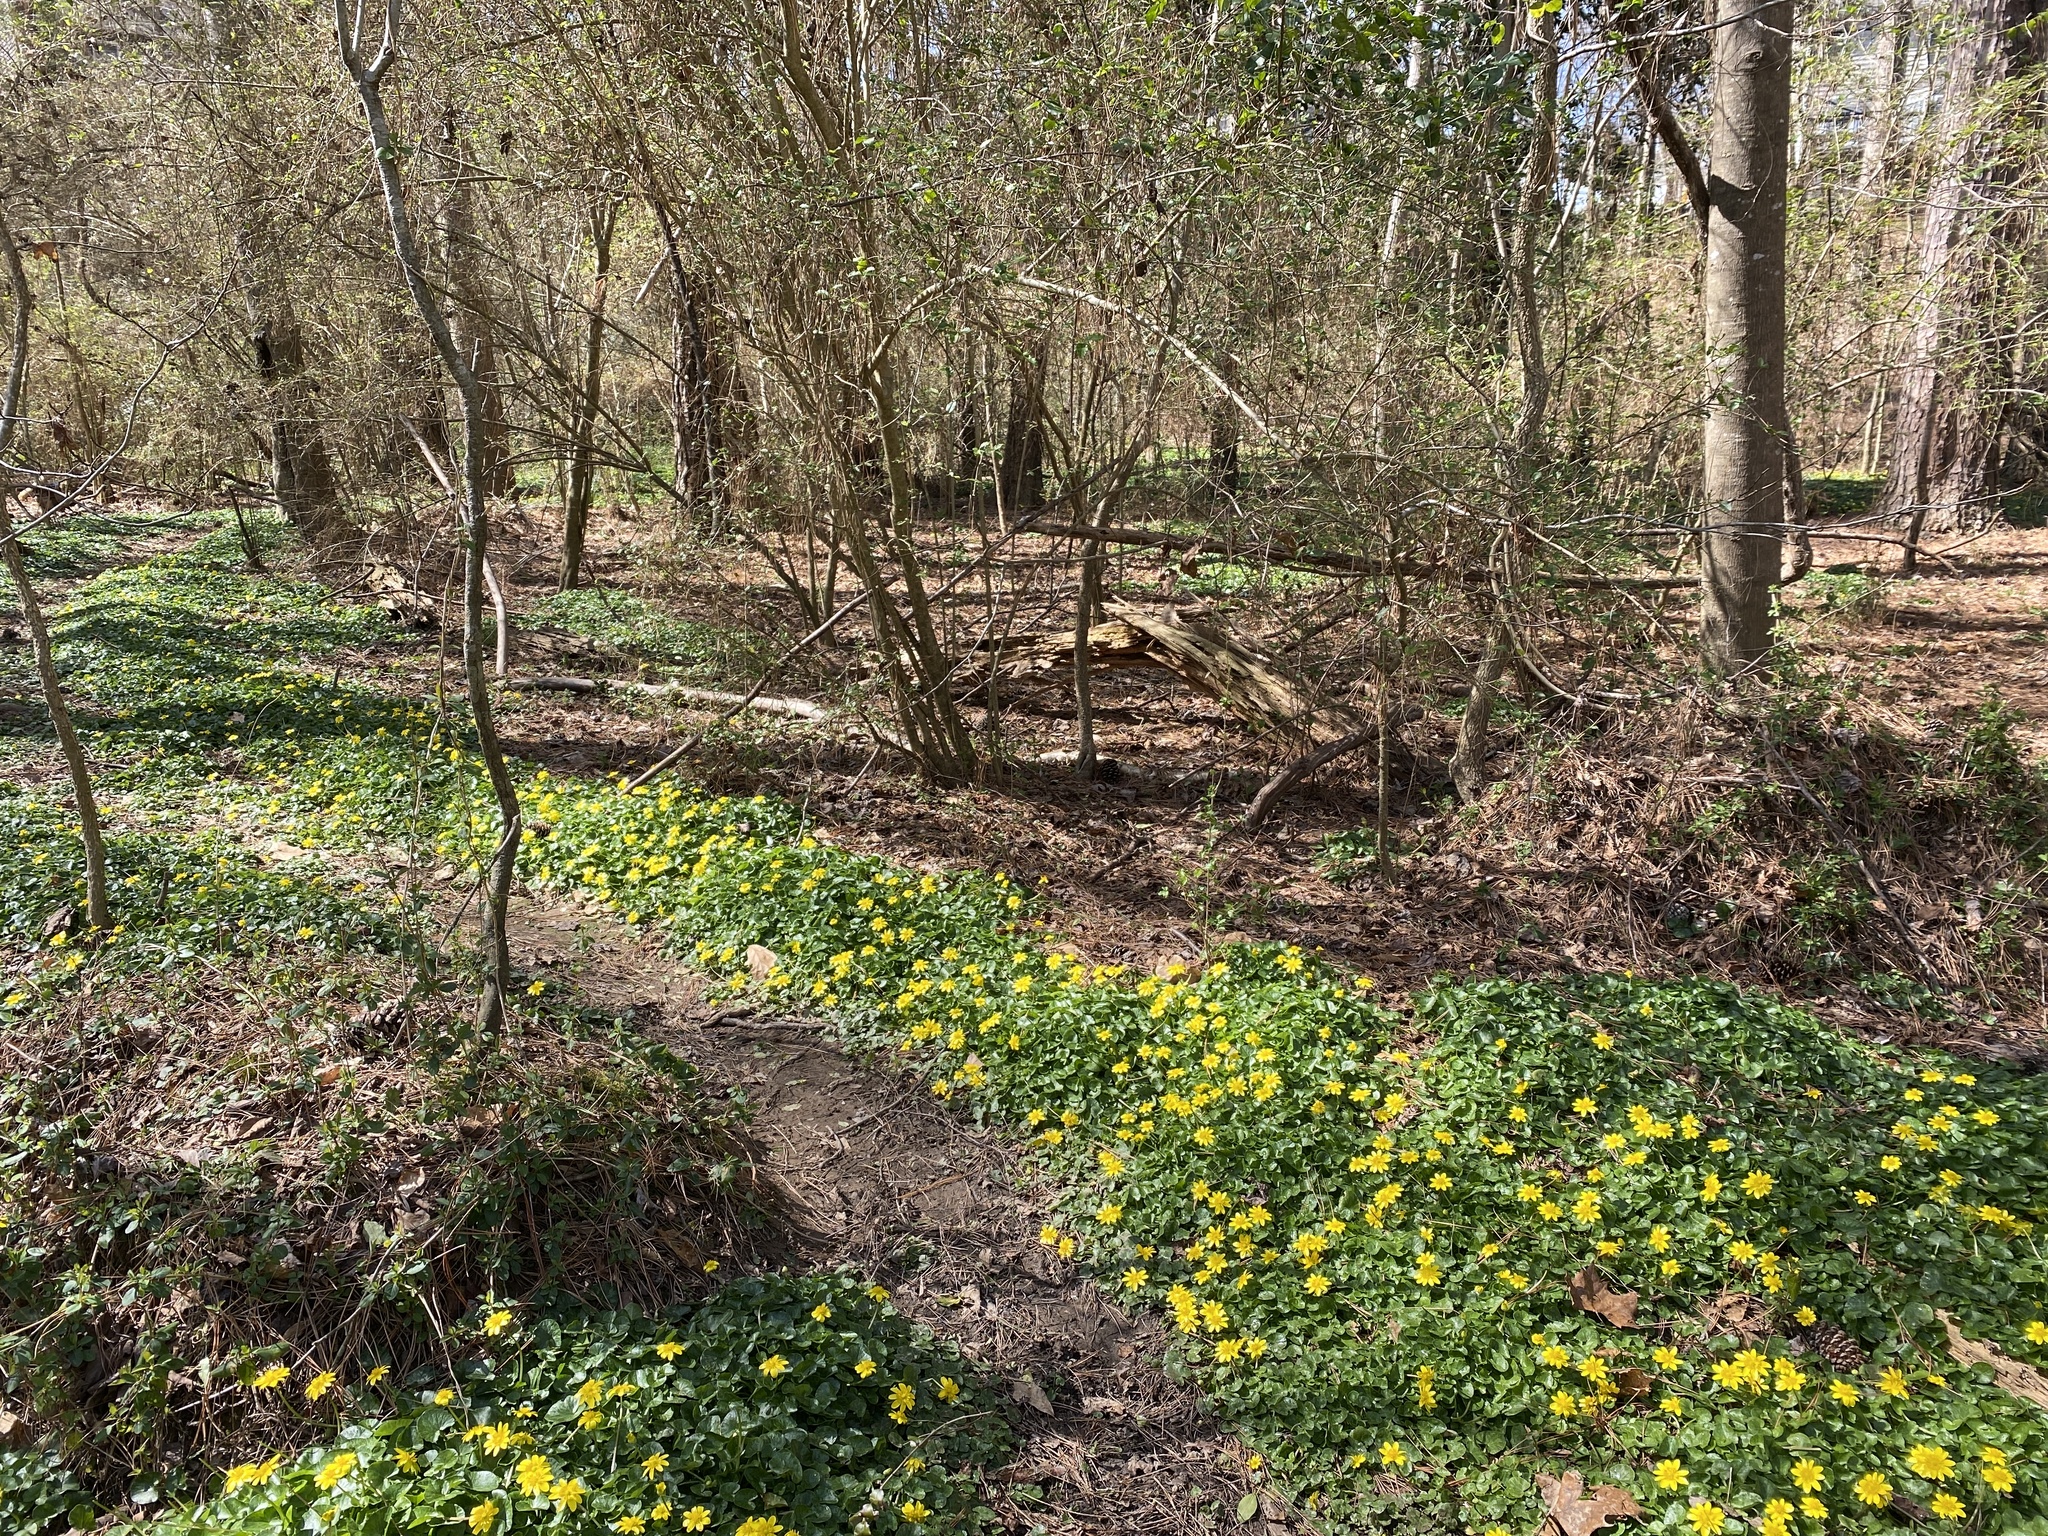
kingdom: Plantae
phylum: Tracheophyta
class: Magnoliopsida
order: Ranunculales
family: Ranunculaceae
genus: Ficaria
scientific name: Ficaria verna
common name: Lesser celandine
